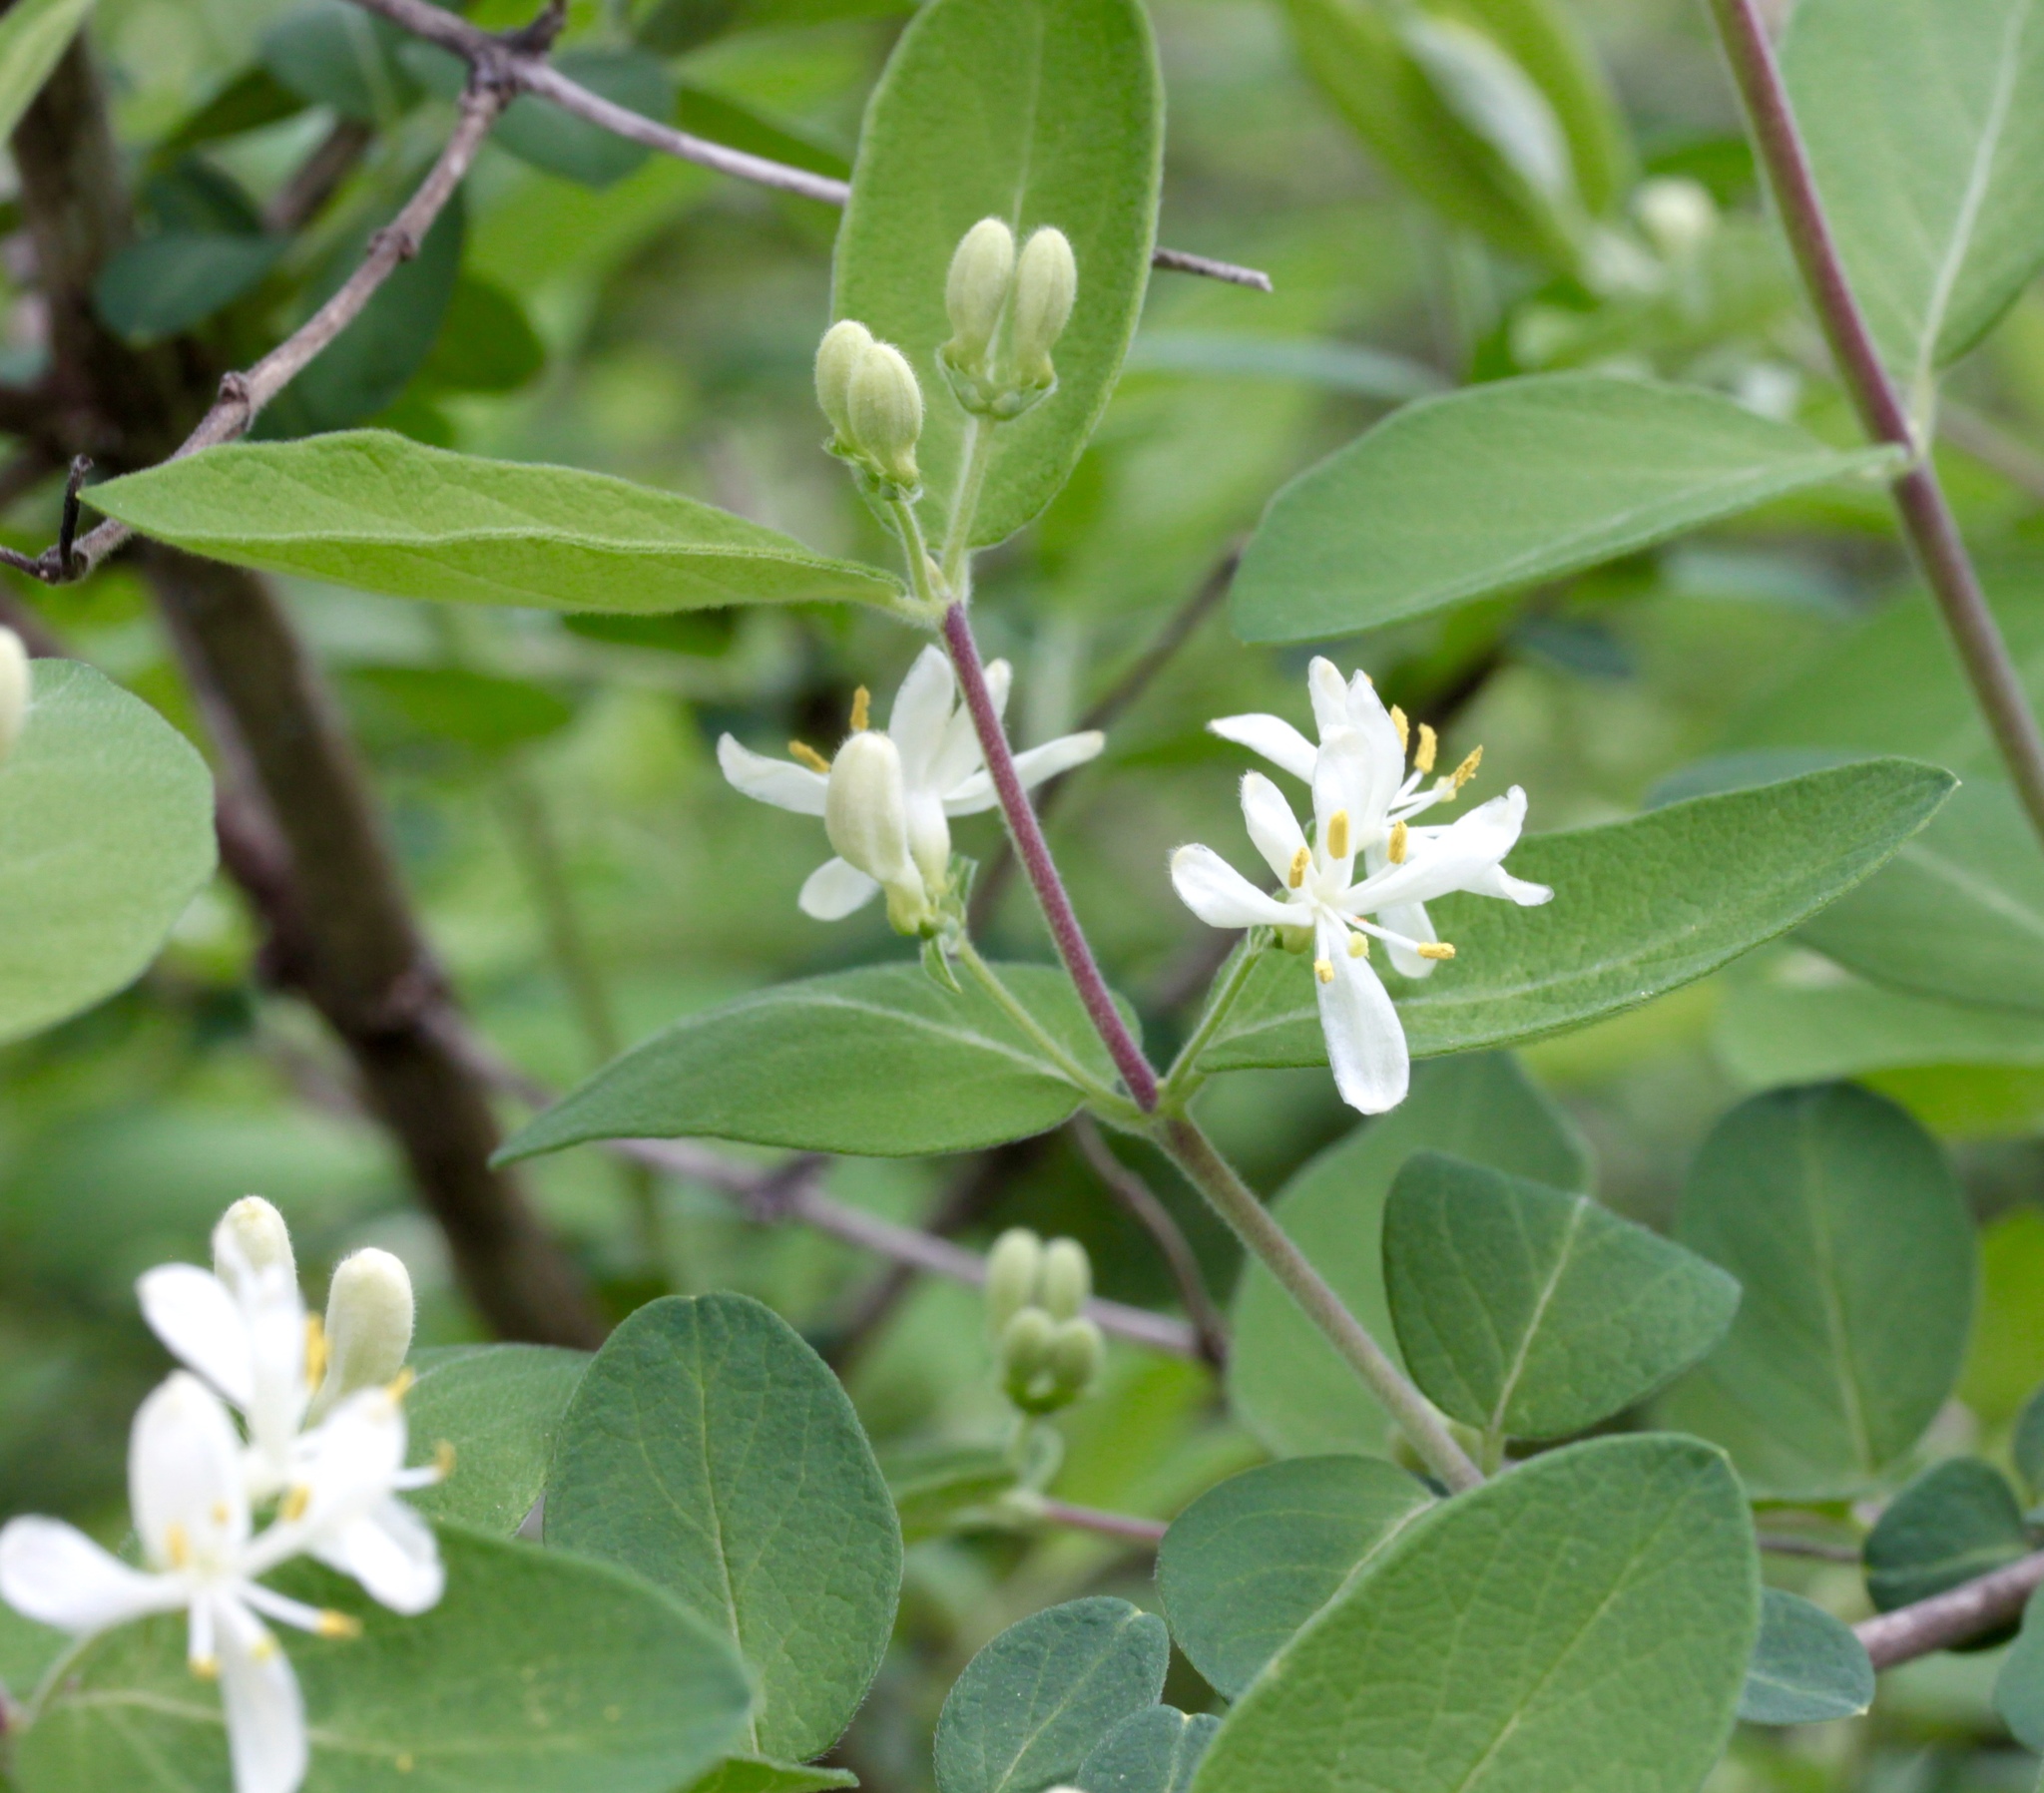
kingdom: Plantae
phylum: Tracheophyta
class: Magnoliopsida
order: Dipsacales
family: Caprifoliaceae
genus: Lonicera
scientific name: Lonicera morrowii
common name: Morrow's honeysuckle
